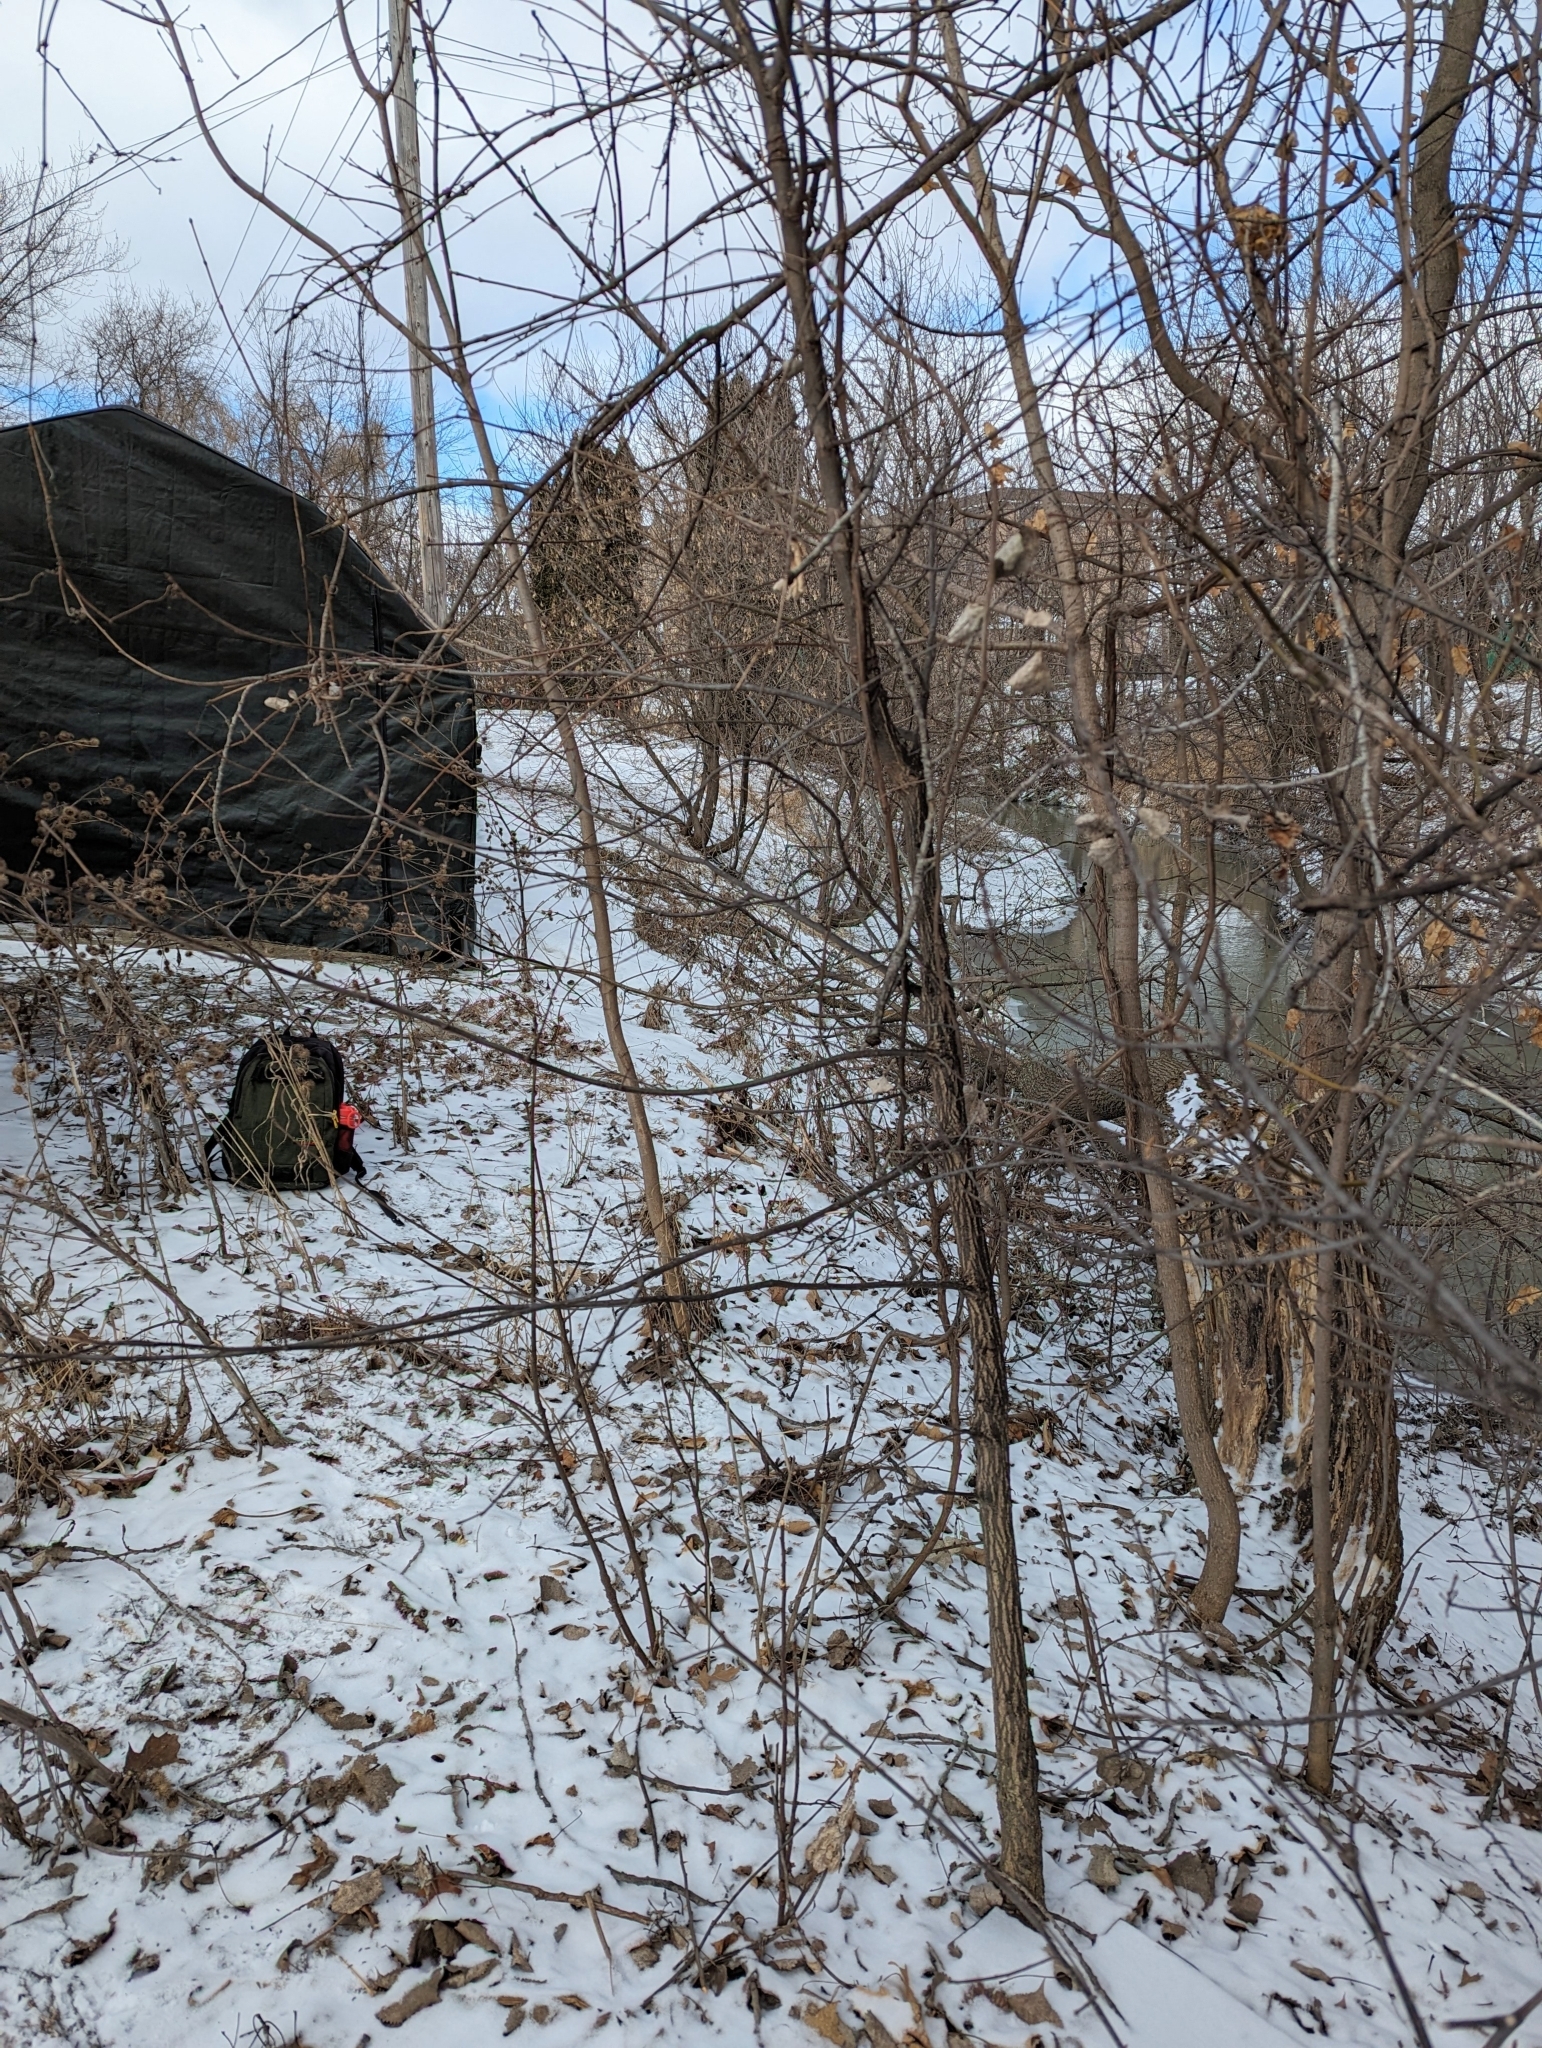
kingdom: Plantae
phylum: Tracheophyta
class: Magnoliopsida
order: Rosales
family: Ulmaceae
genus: Ulmus
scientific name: Ulmus americana
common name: American elm
